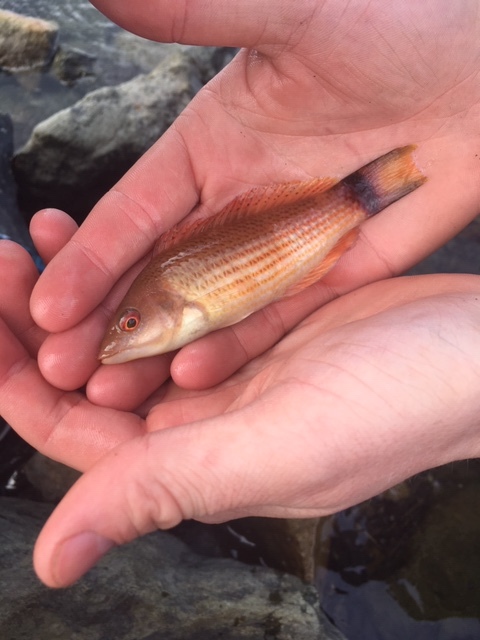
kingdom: Animalia
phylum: Chordata
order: Perciformes
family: Labridae
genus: Pseudolabrus
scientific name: Pseudolabrus miles
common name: Scarlet wrasse
